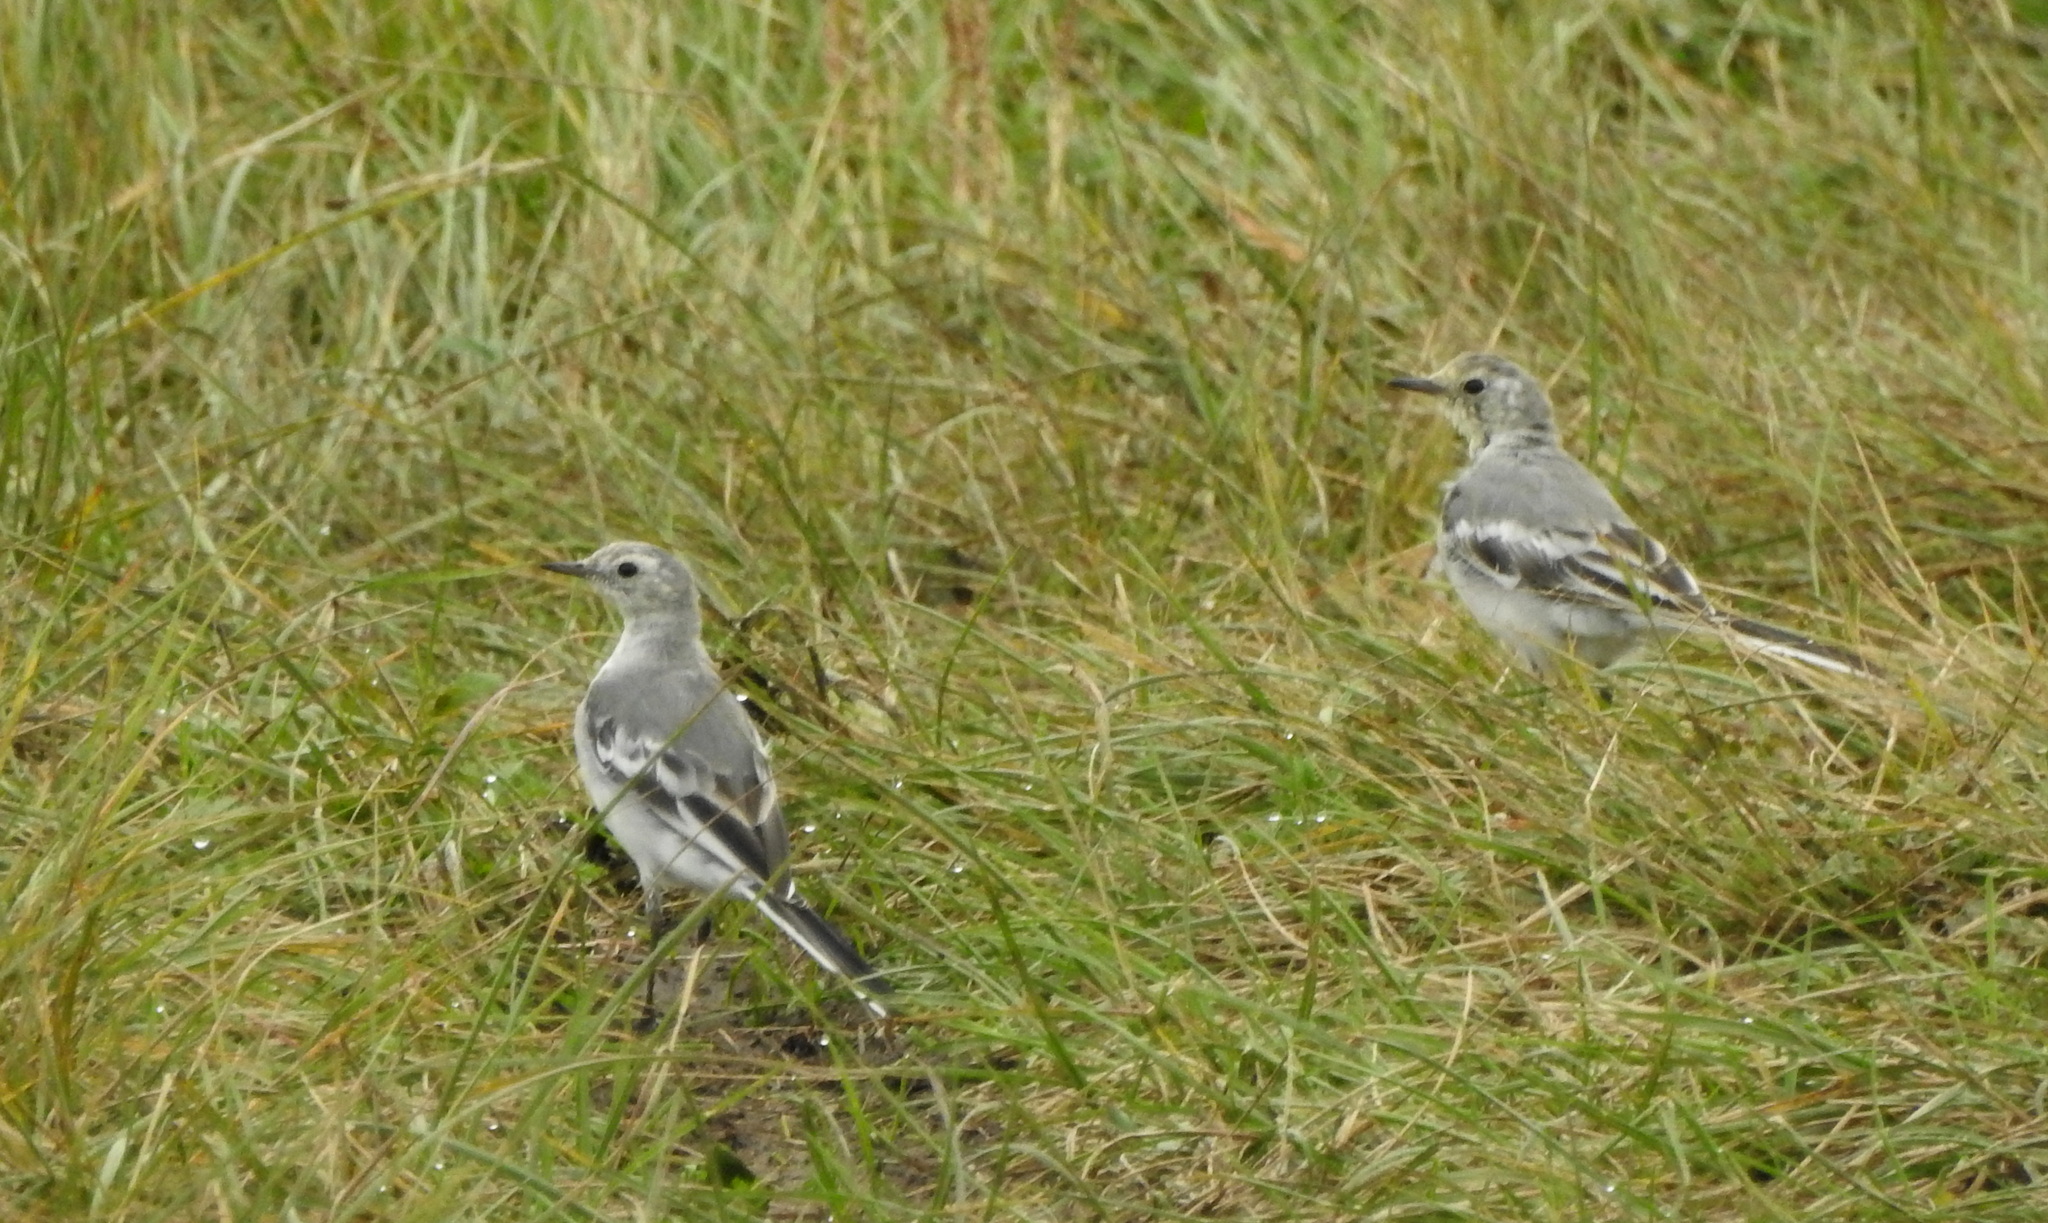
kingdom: Animalia
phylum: Chordata
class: Aves
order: Passeriformes
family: Motacillidae
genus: Motacilla
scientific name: Motacilla alba
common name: White wagtail
